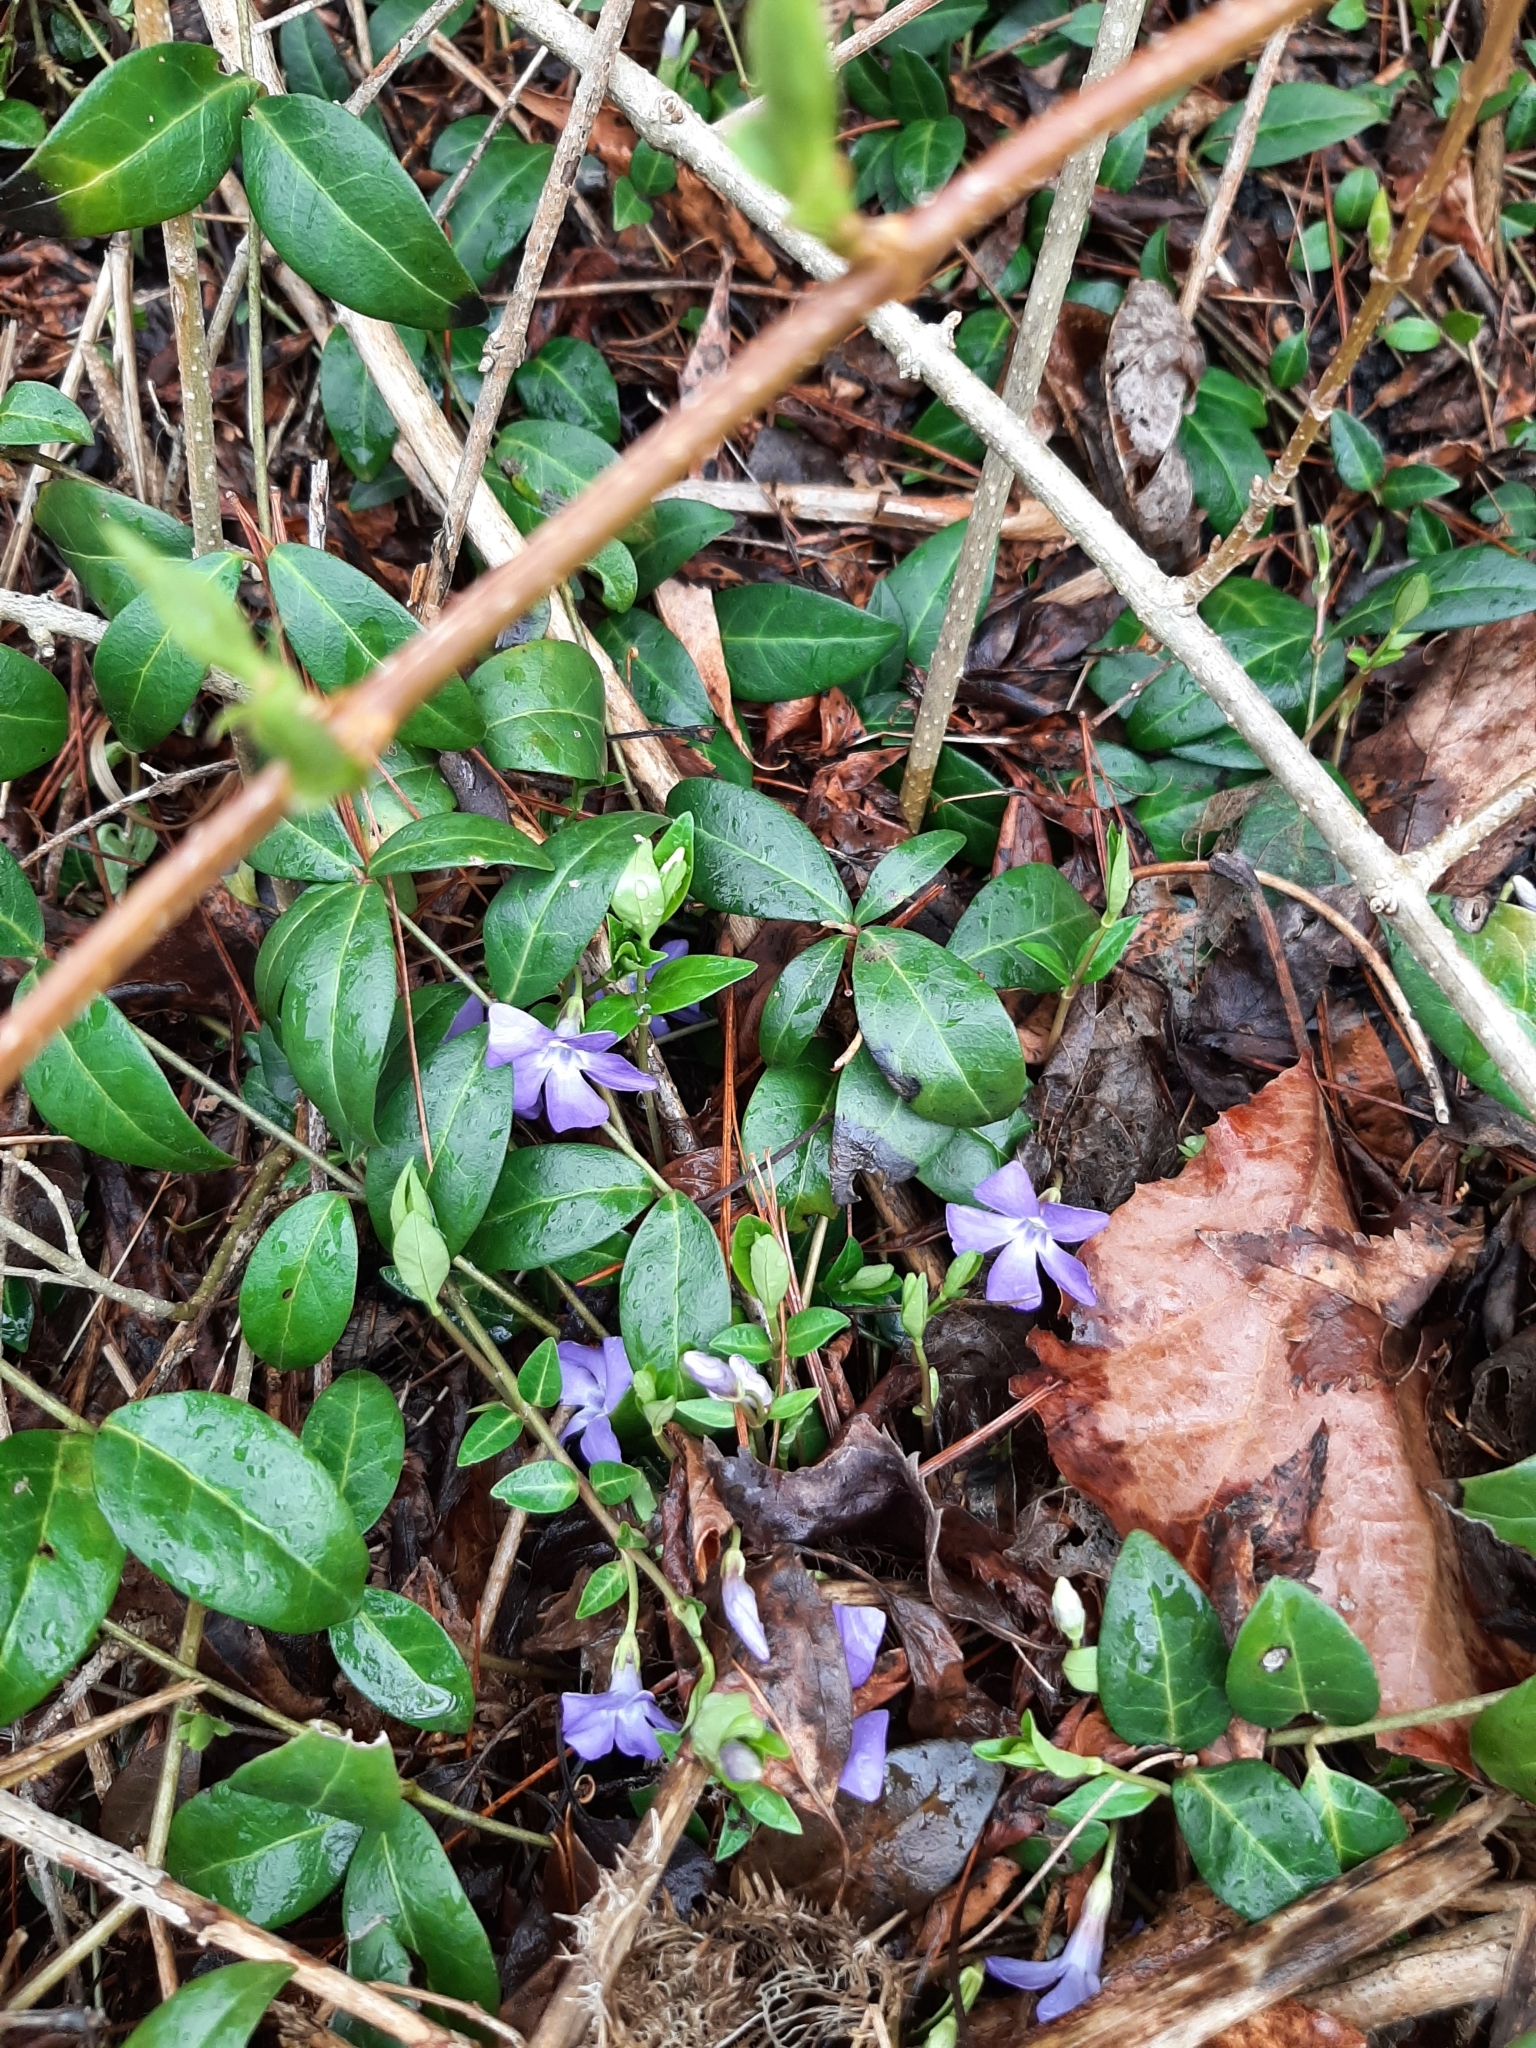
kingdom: Plantae
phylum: Tracheophyta
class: Magnoliopsida
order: Gentianales
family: Apocynaceae
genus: Vinca
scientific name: Vinca minor
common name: Lesser periwinkle
